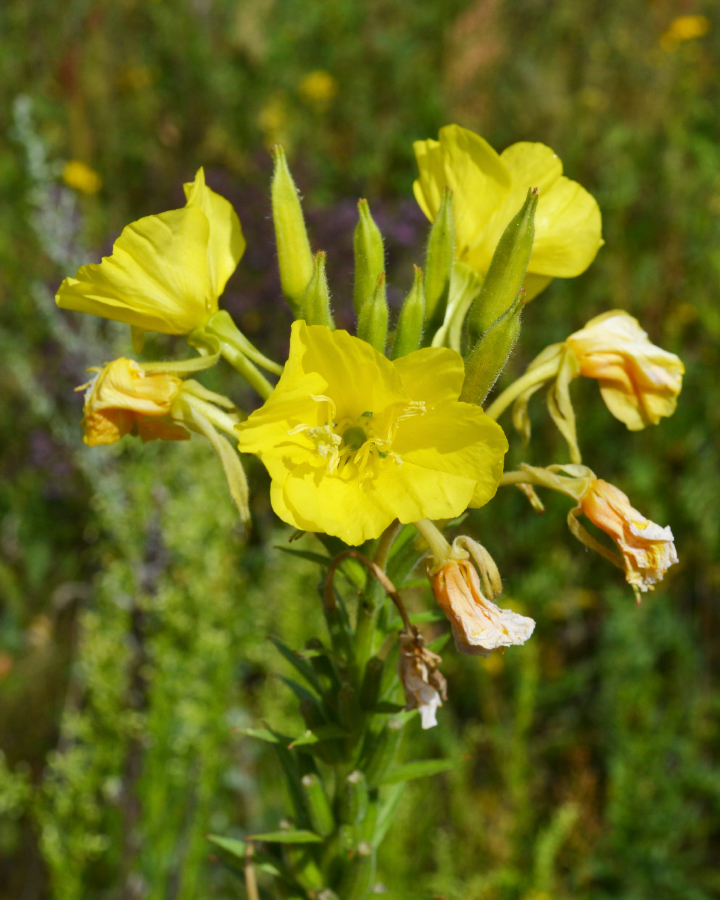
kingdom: Plantae
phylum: Tracheophyta
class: Magnoliopsida
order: Myrtales
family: Onagraceae
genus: Oenothera
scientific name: Oenothera biennis
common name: Common evening-primrose
